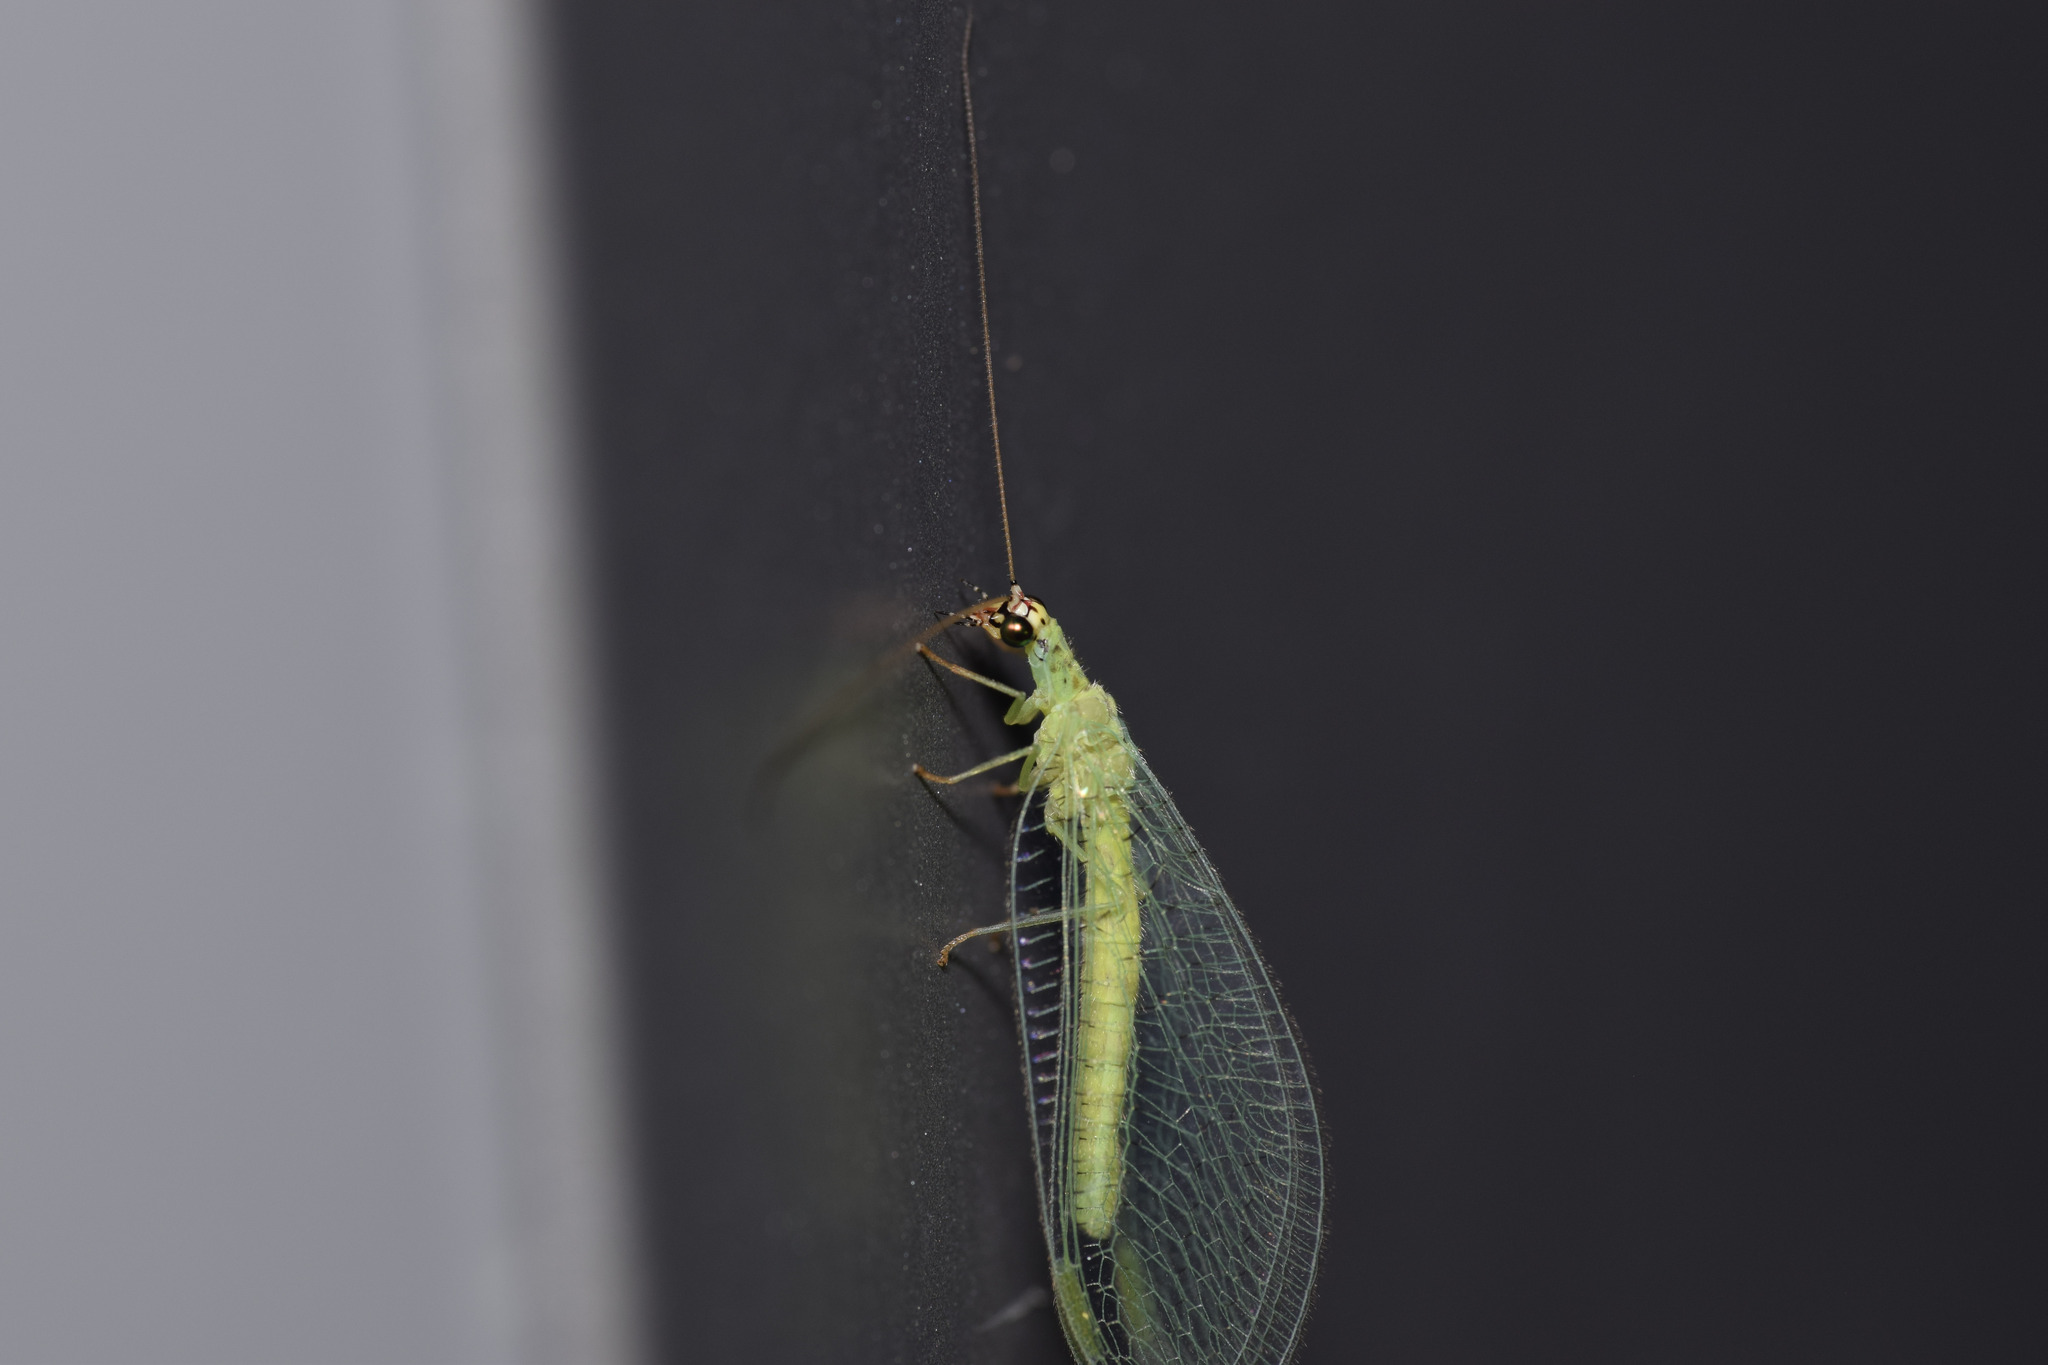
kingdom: Animalia
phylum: Arthropoda
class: Insecta
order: Neuroptera
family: Chrysopidae
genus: Chrysopa
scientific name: Chrysopa oculata
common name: Golden-eyed lacewing
